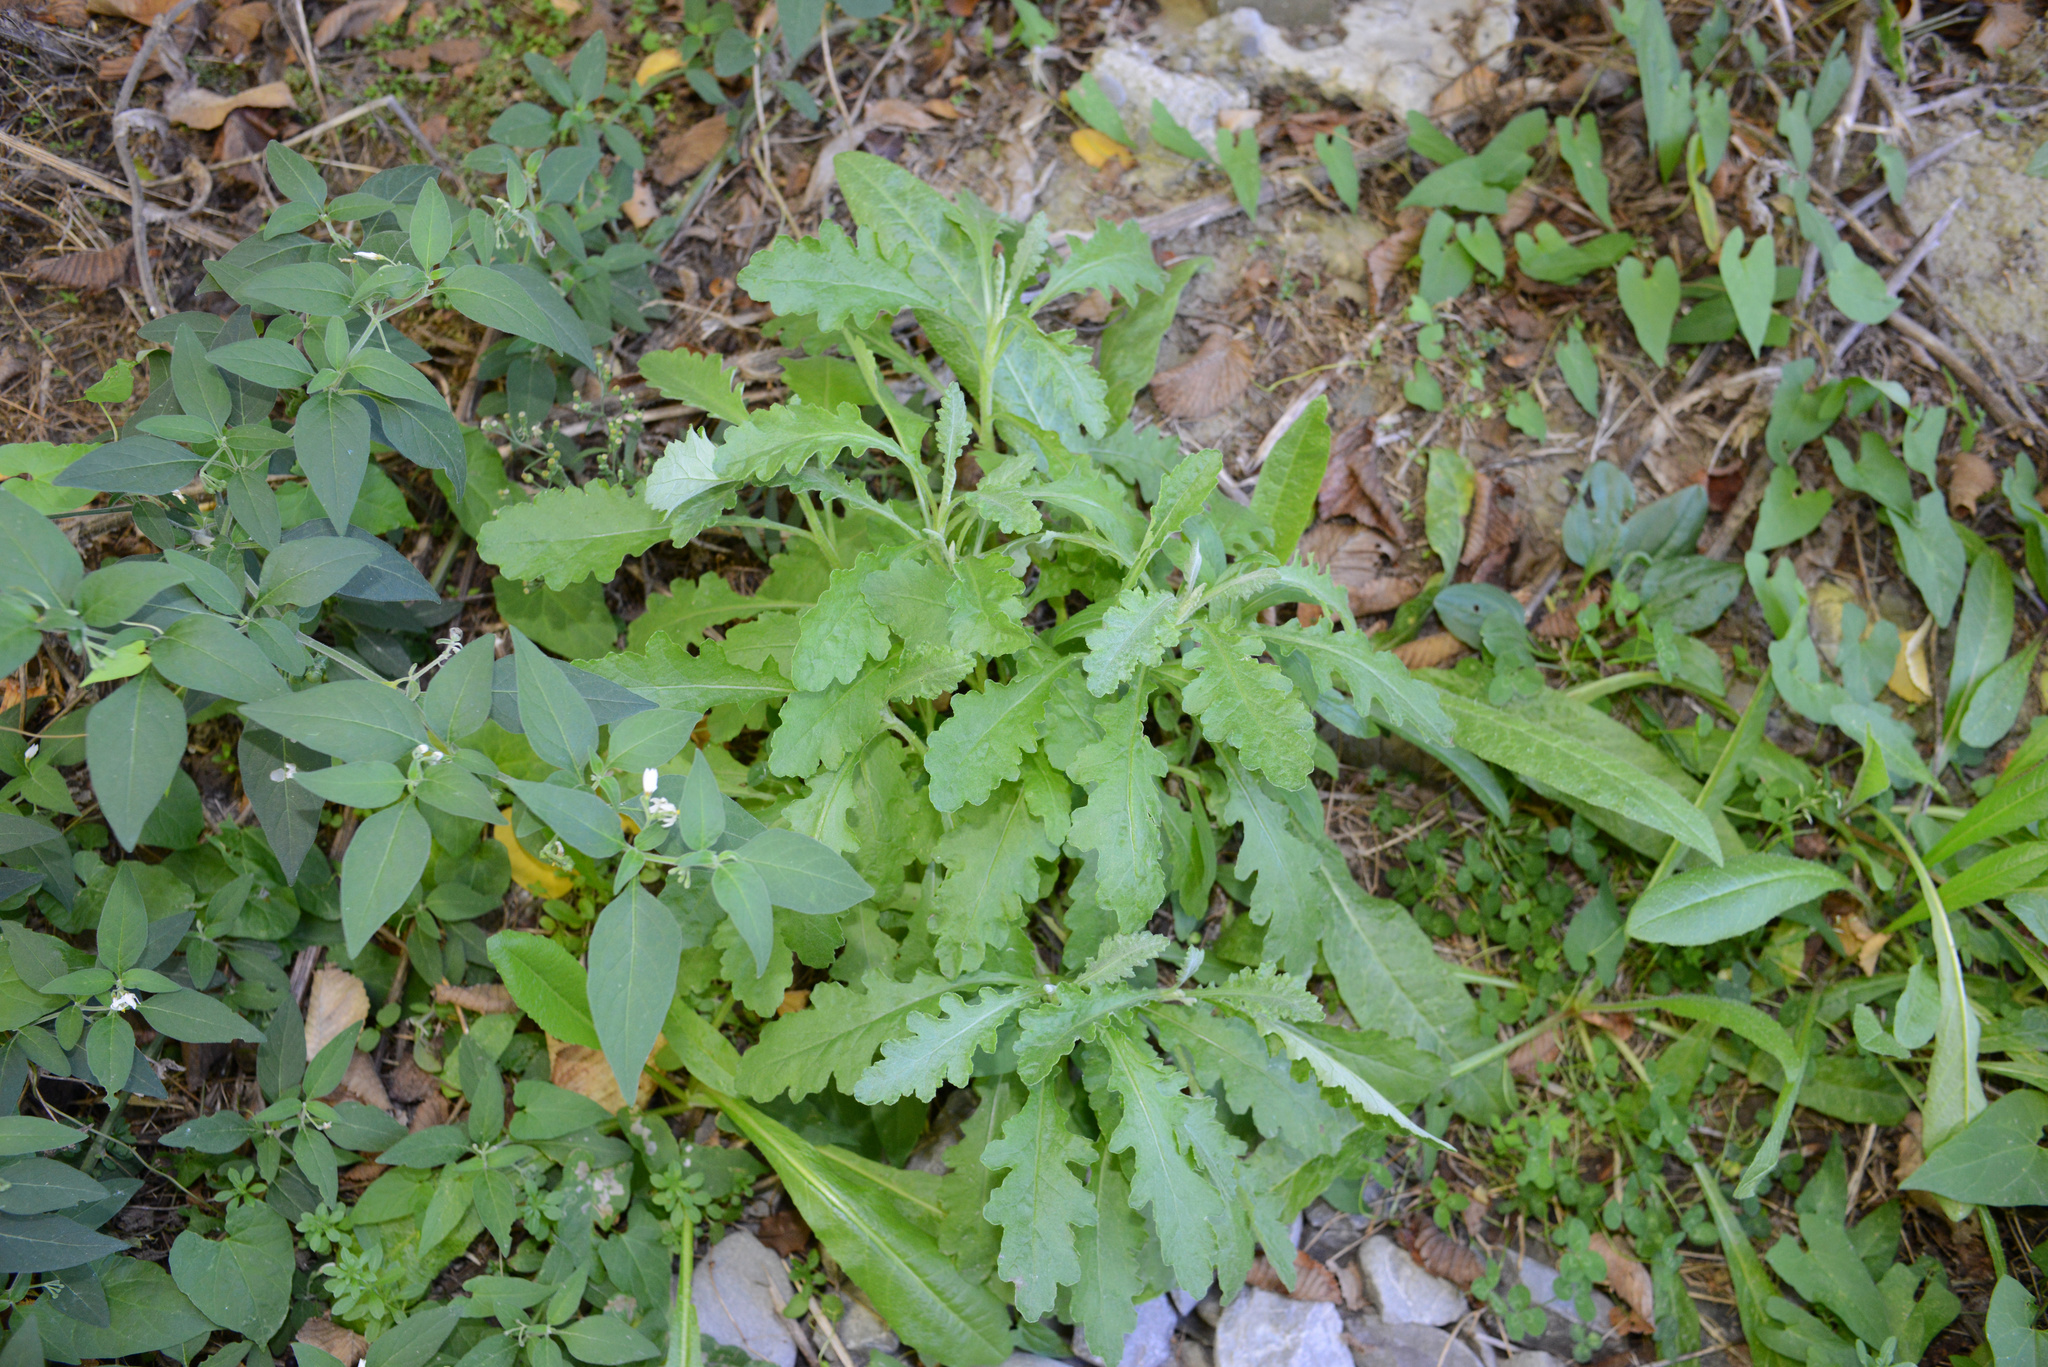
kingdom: Plantae
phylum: Tracheophyta
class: Magnoliopsida
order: Asterales
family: Asteraceae
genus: Senecio
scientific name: Senecio glomeratus
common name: Cutleaf burnweed
